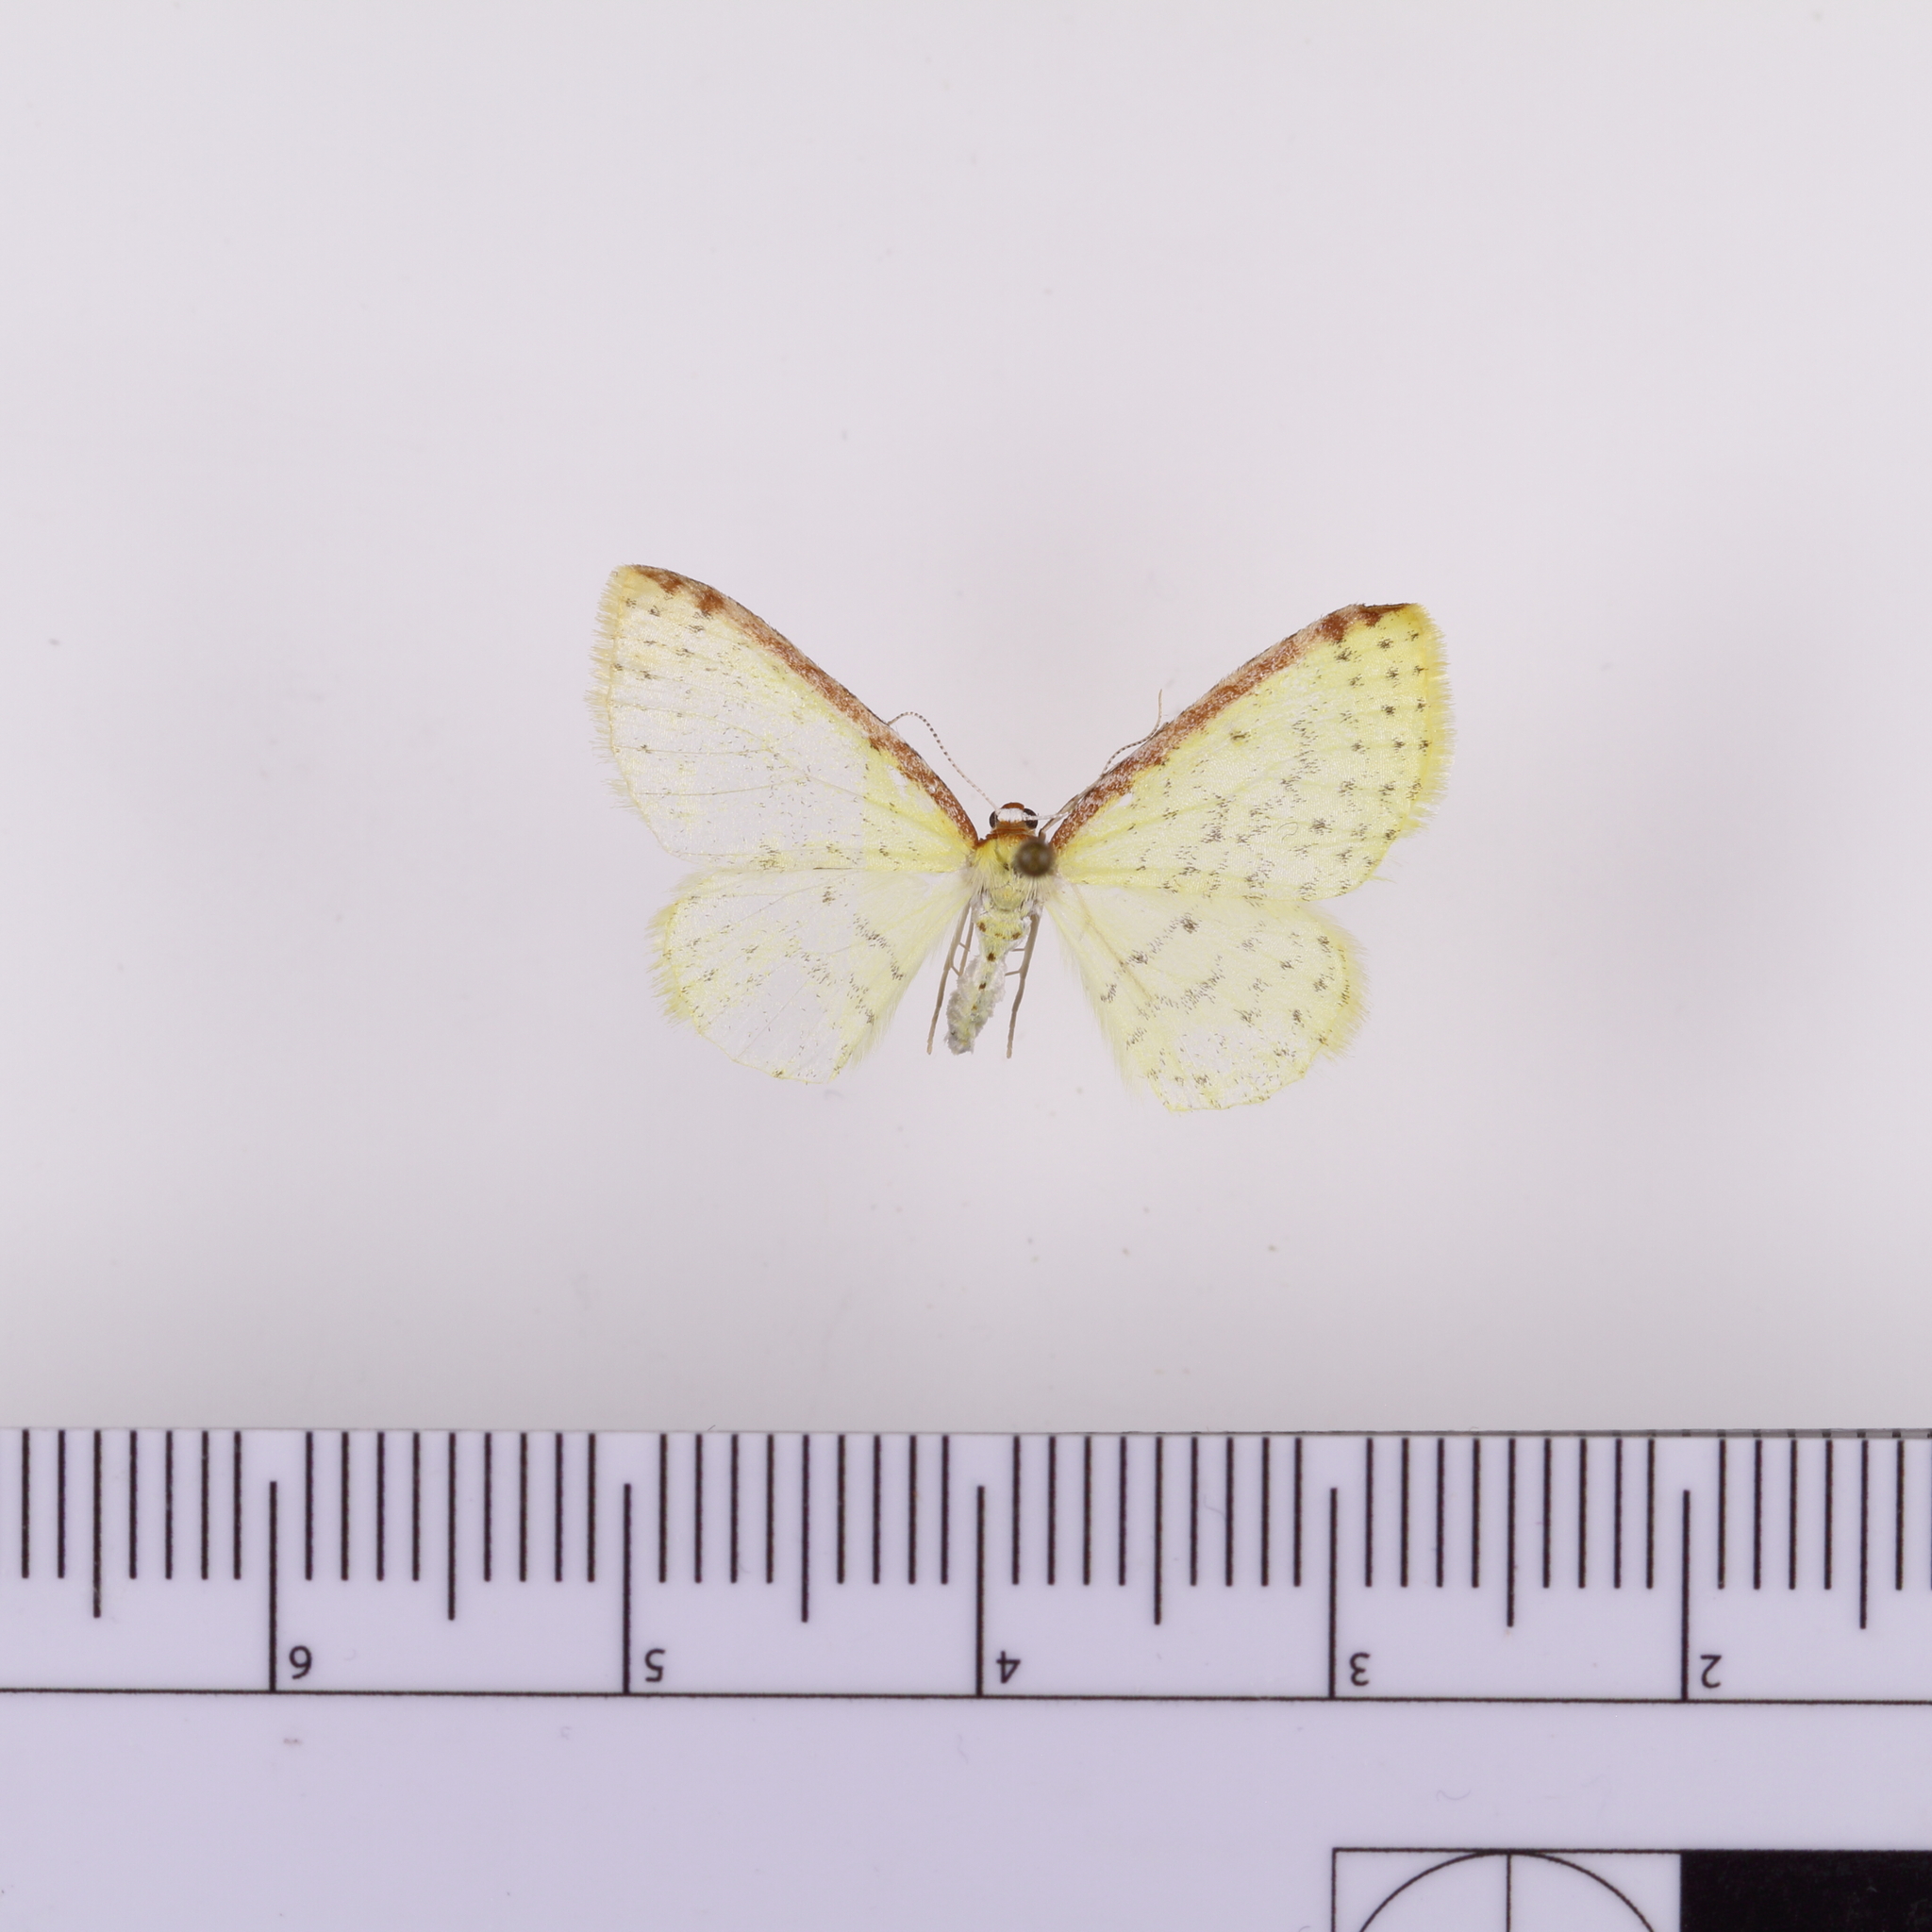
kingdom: Animalia
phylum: Arthropoda
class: Insecta
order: Lepidoptera
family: Geometridae
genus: Epiphryne
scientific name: Epiphryne undosata
